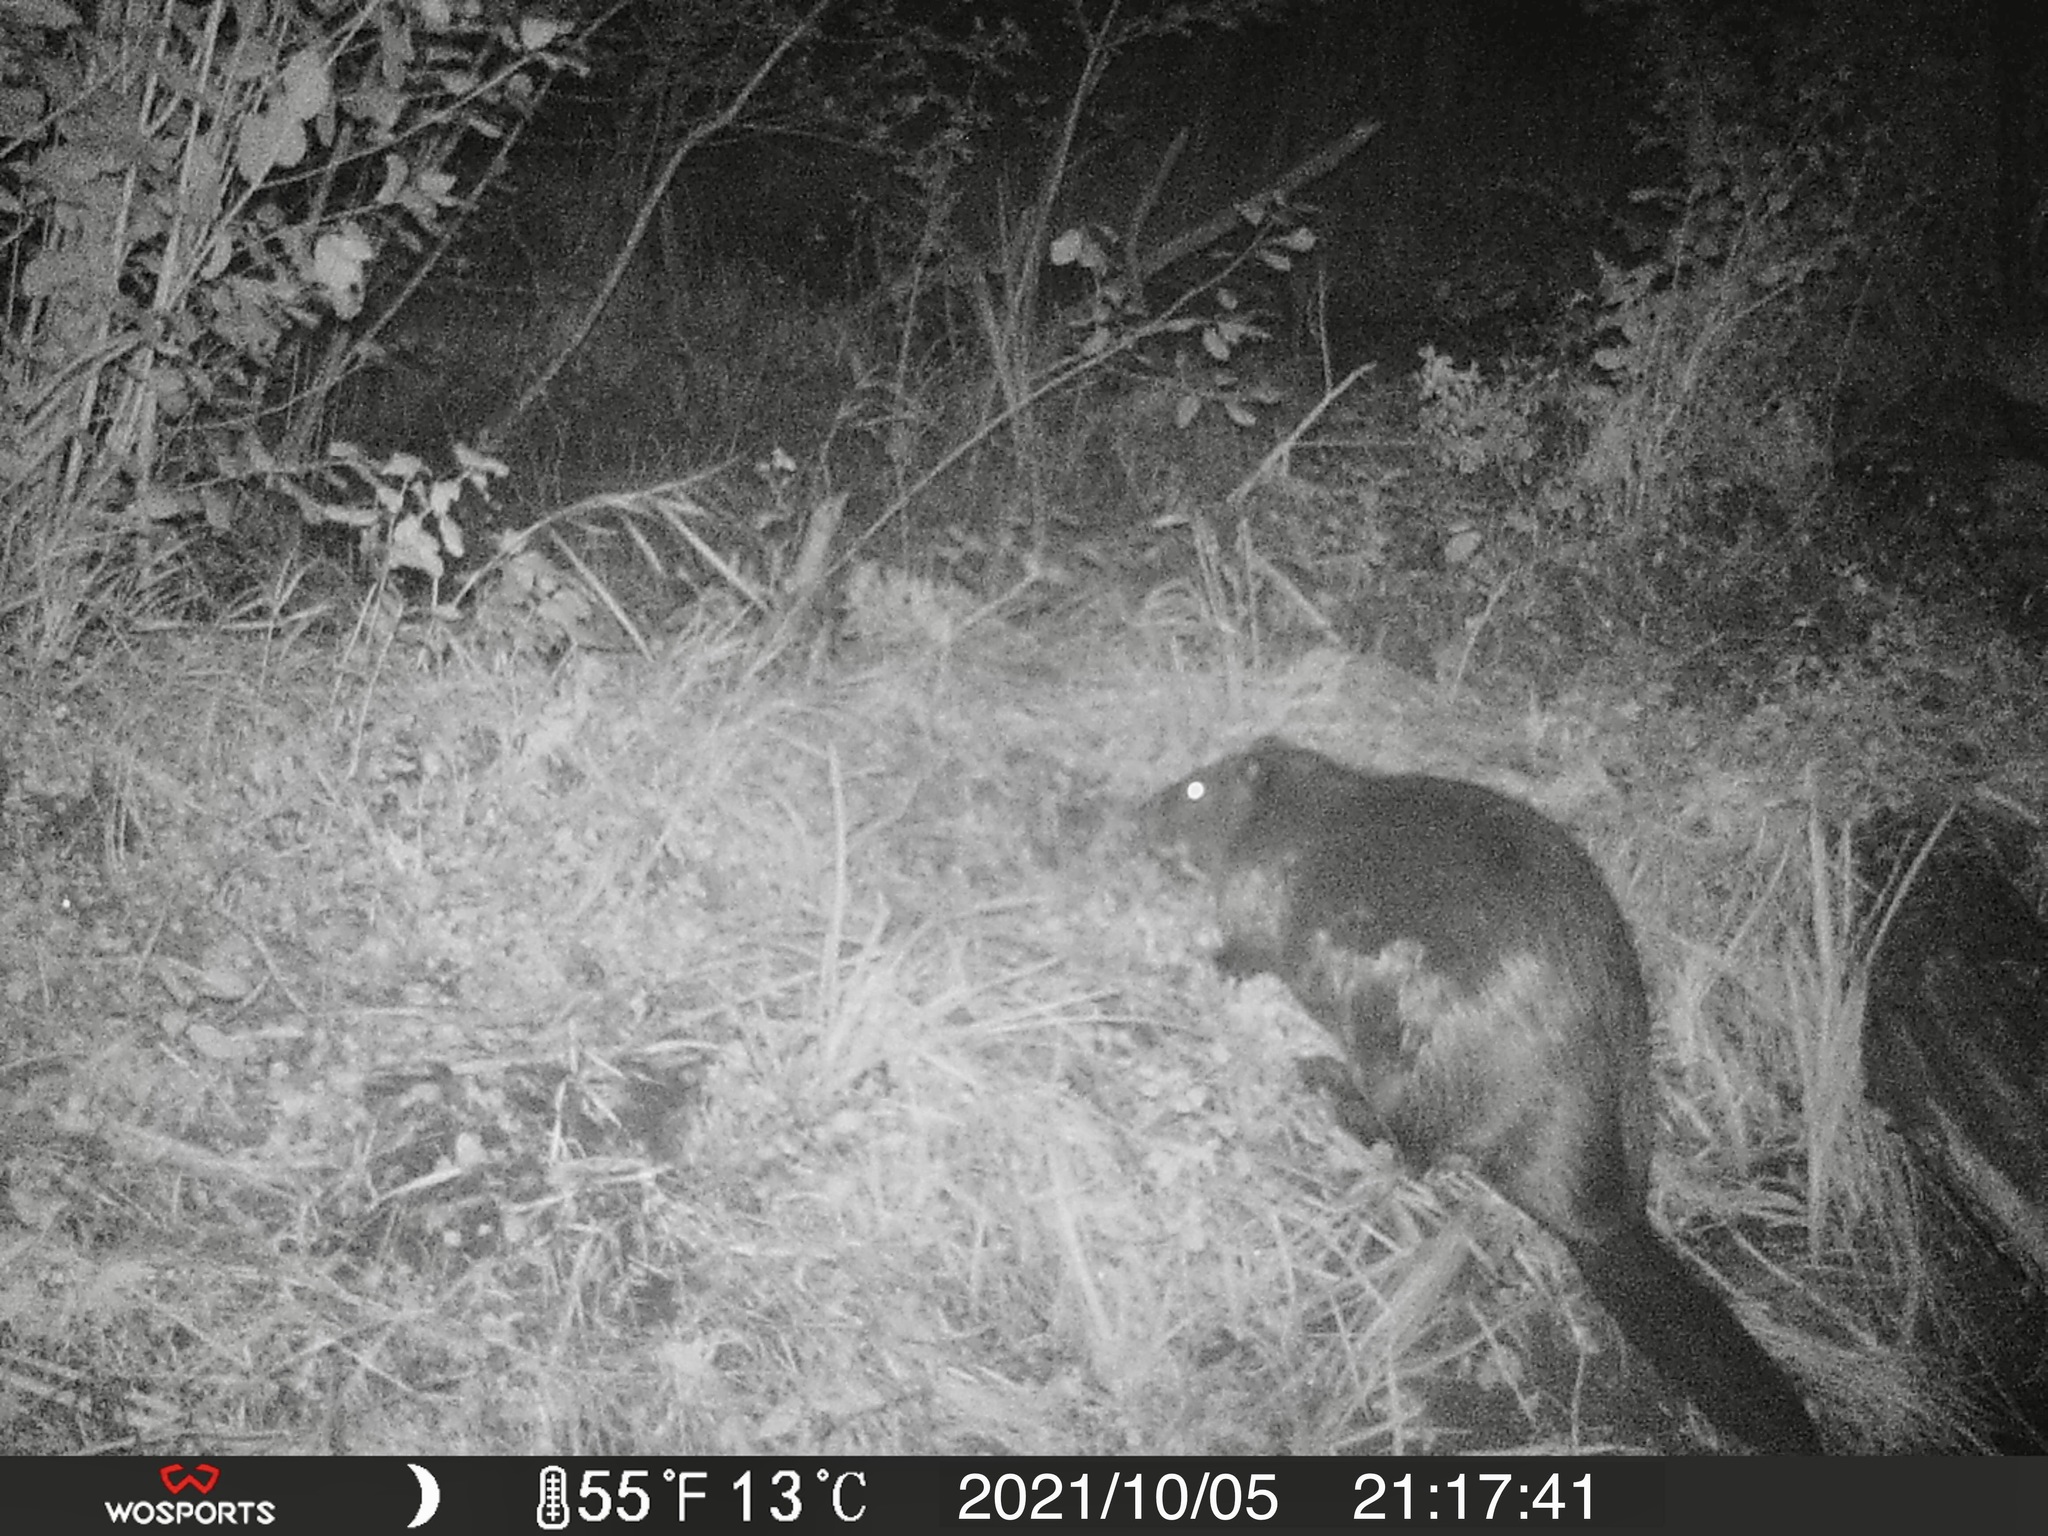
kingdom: Animalia
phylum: Chordata
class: Mammalia
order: Rodentia
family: Castoridae
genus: Castor
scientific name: Castor canadensis
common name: American beaver
